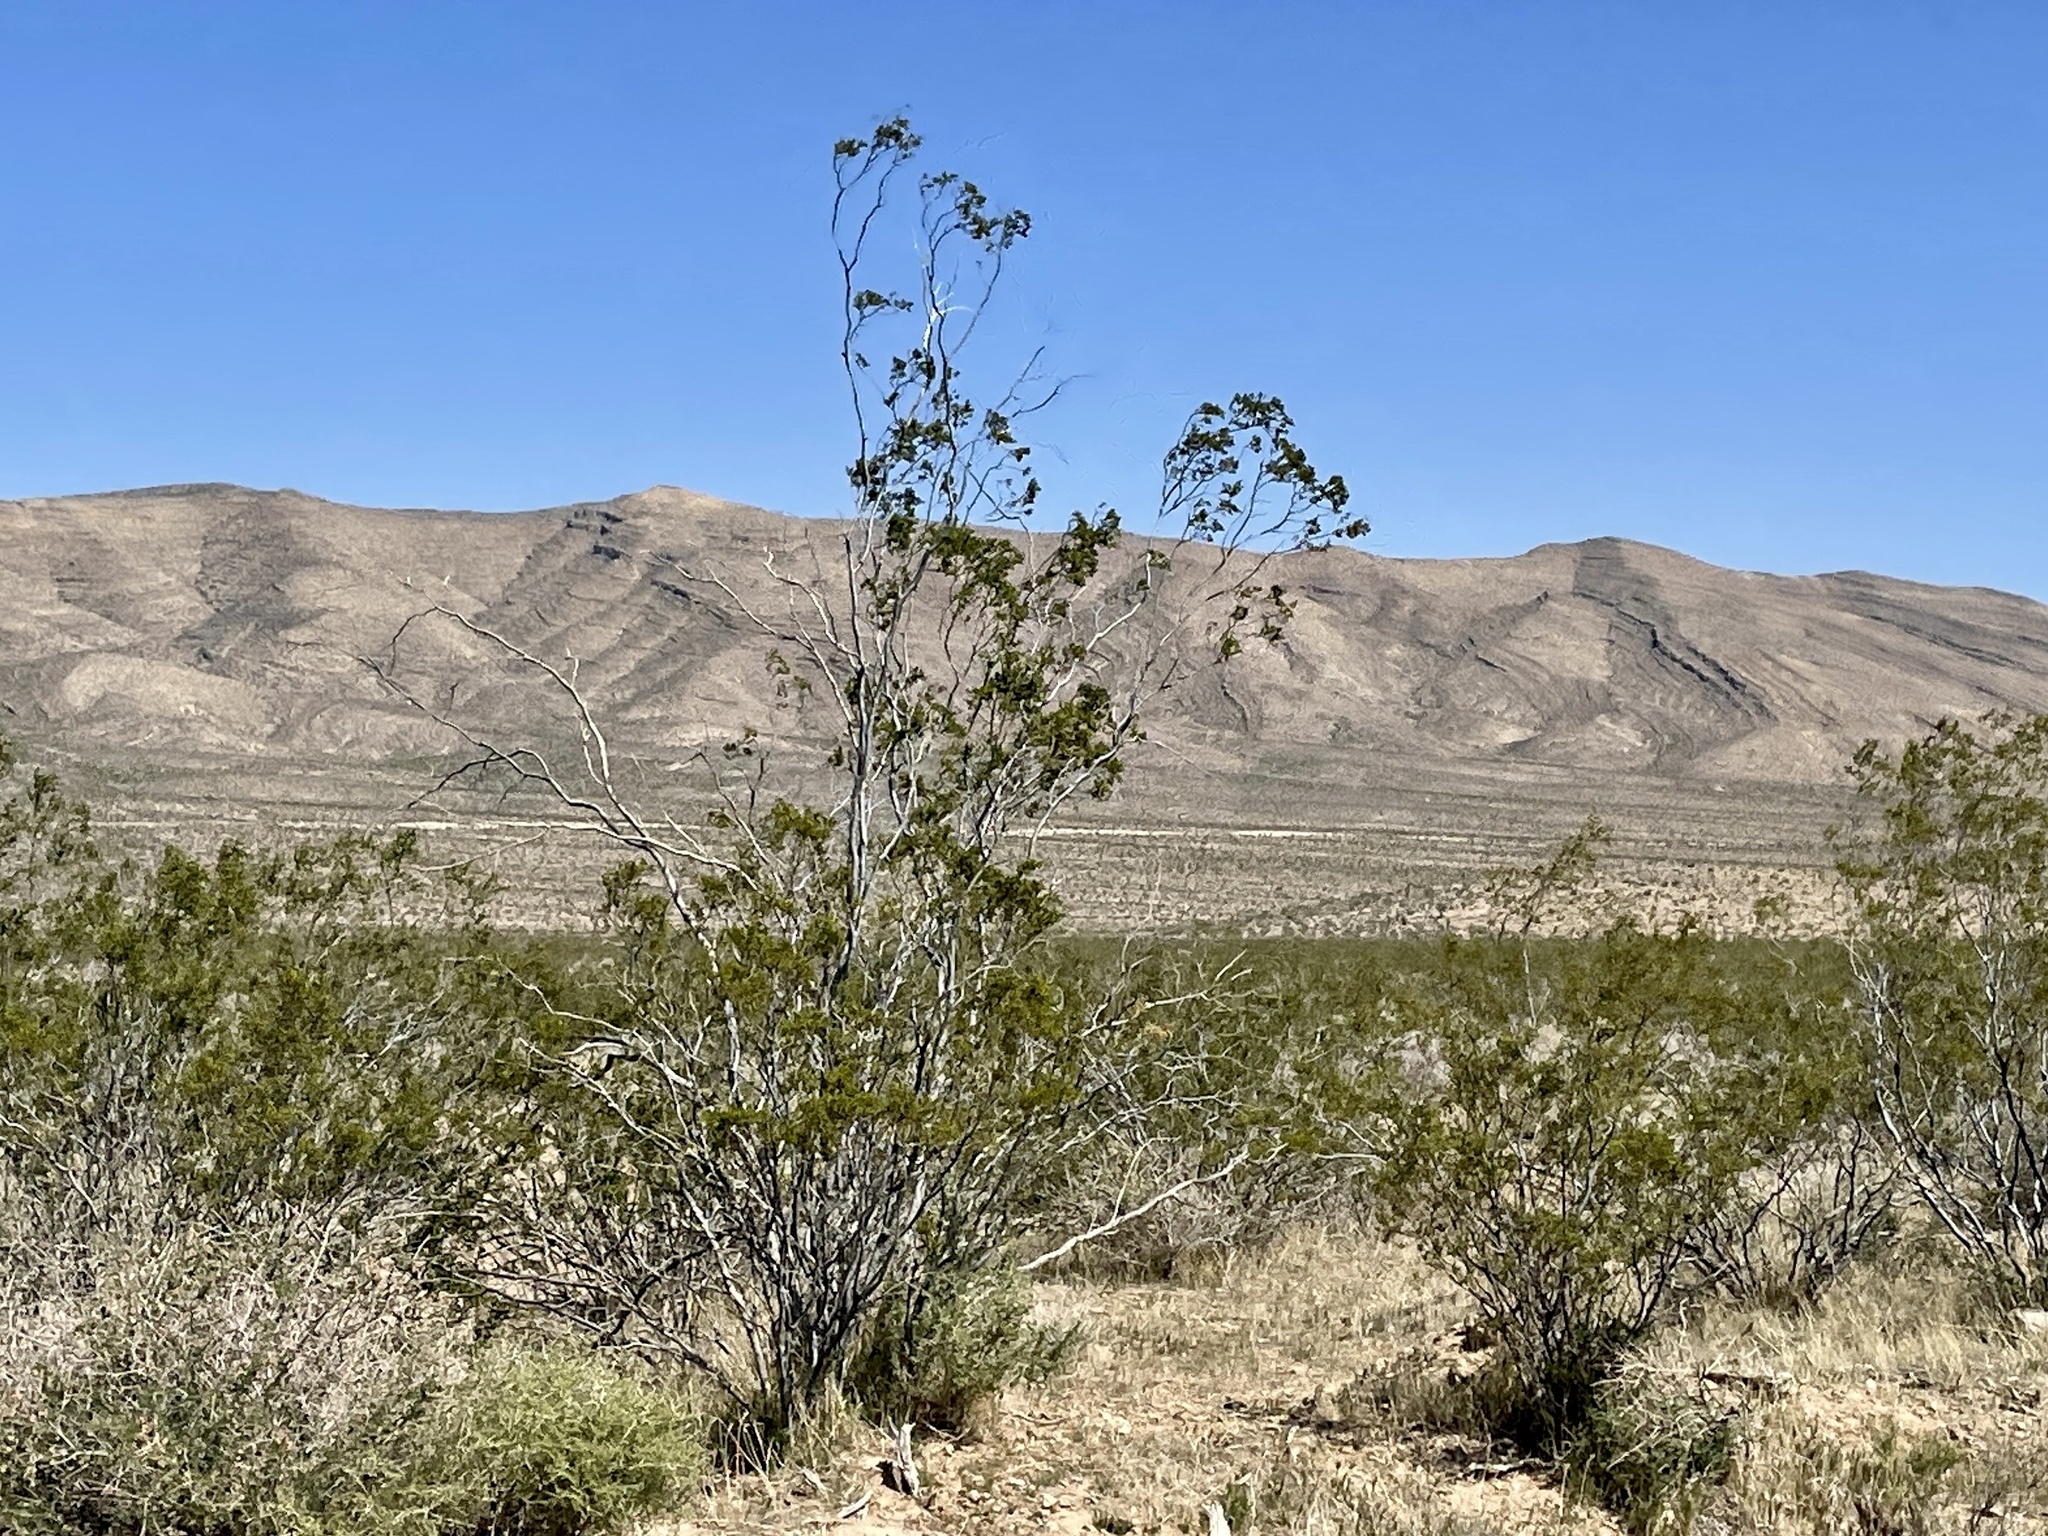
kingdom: Plantae
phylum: Tracheophyta
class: Magnoliopsida
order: Zygophyllales
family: Zygophyllaceae
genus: Larrea
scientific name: Larrea tridentata
